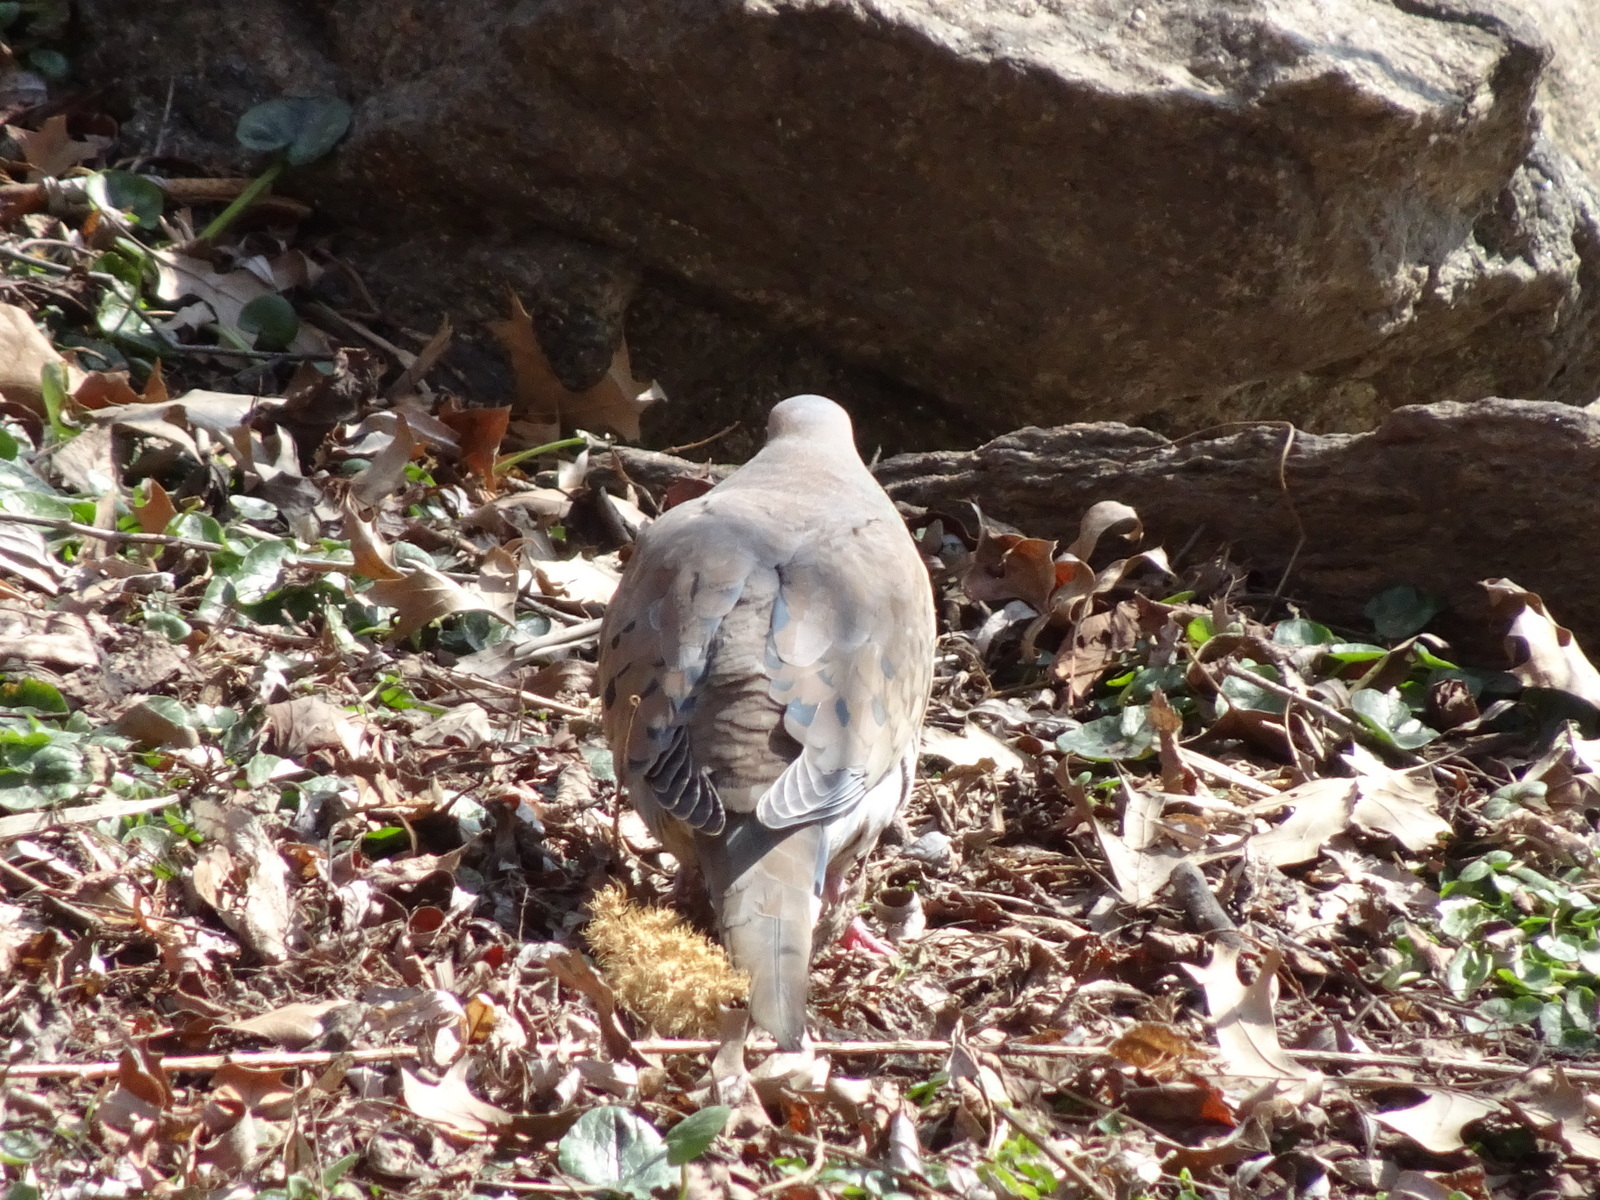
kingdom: Animalia
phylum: Chordata
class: Aves
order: Columbiformes
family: Columbidae
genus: Zenaida
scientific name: Zenaida macroura
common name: Mourning dove
